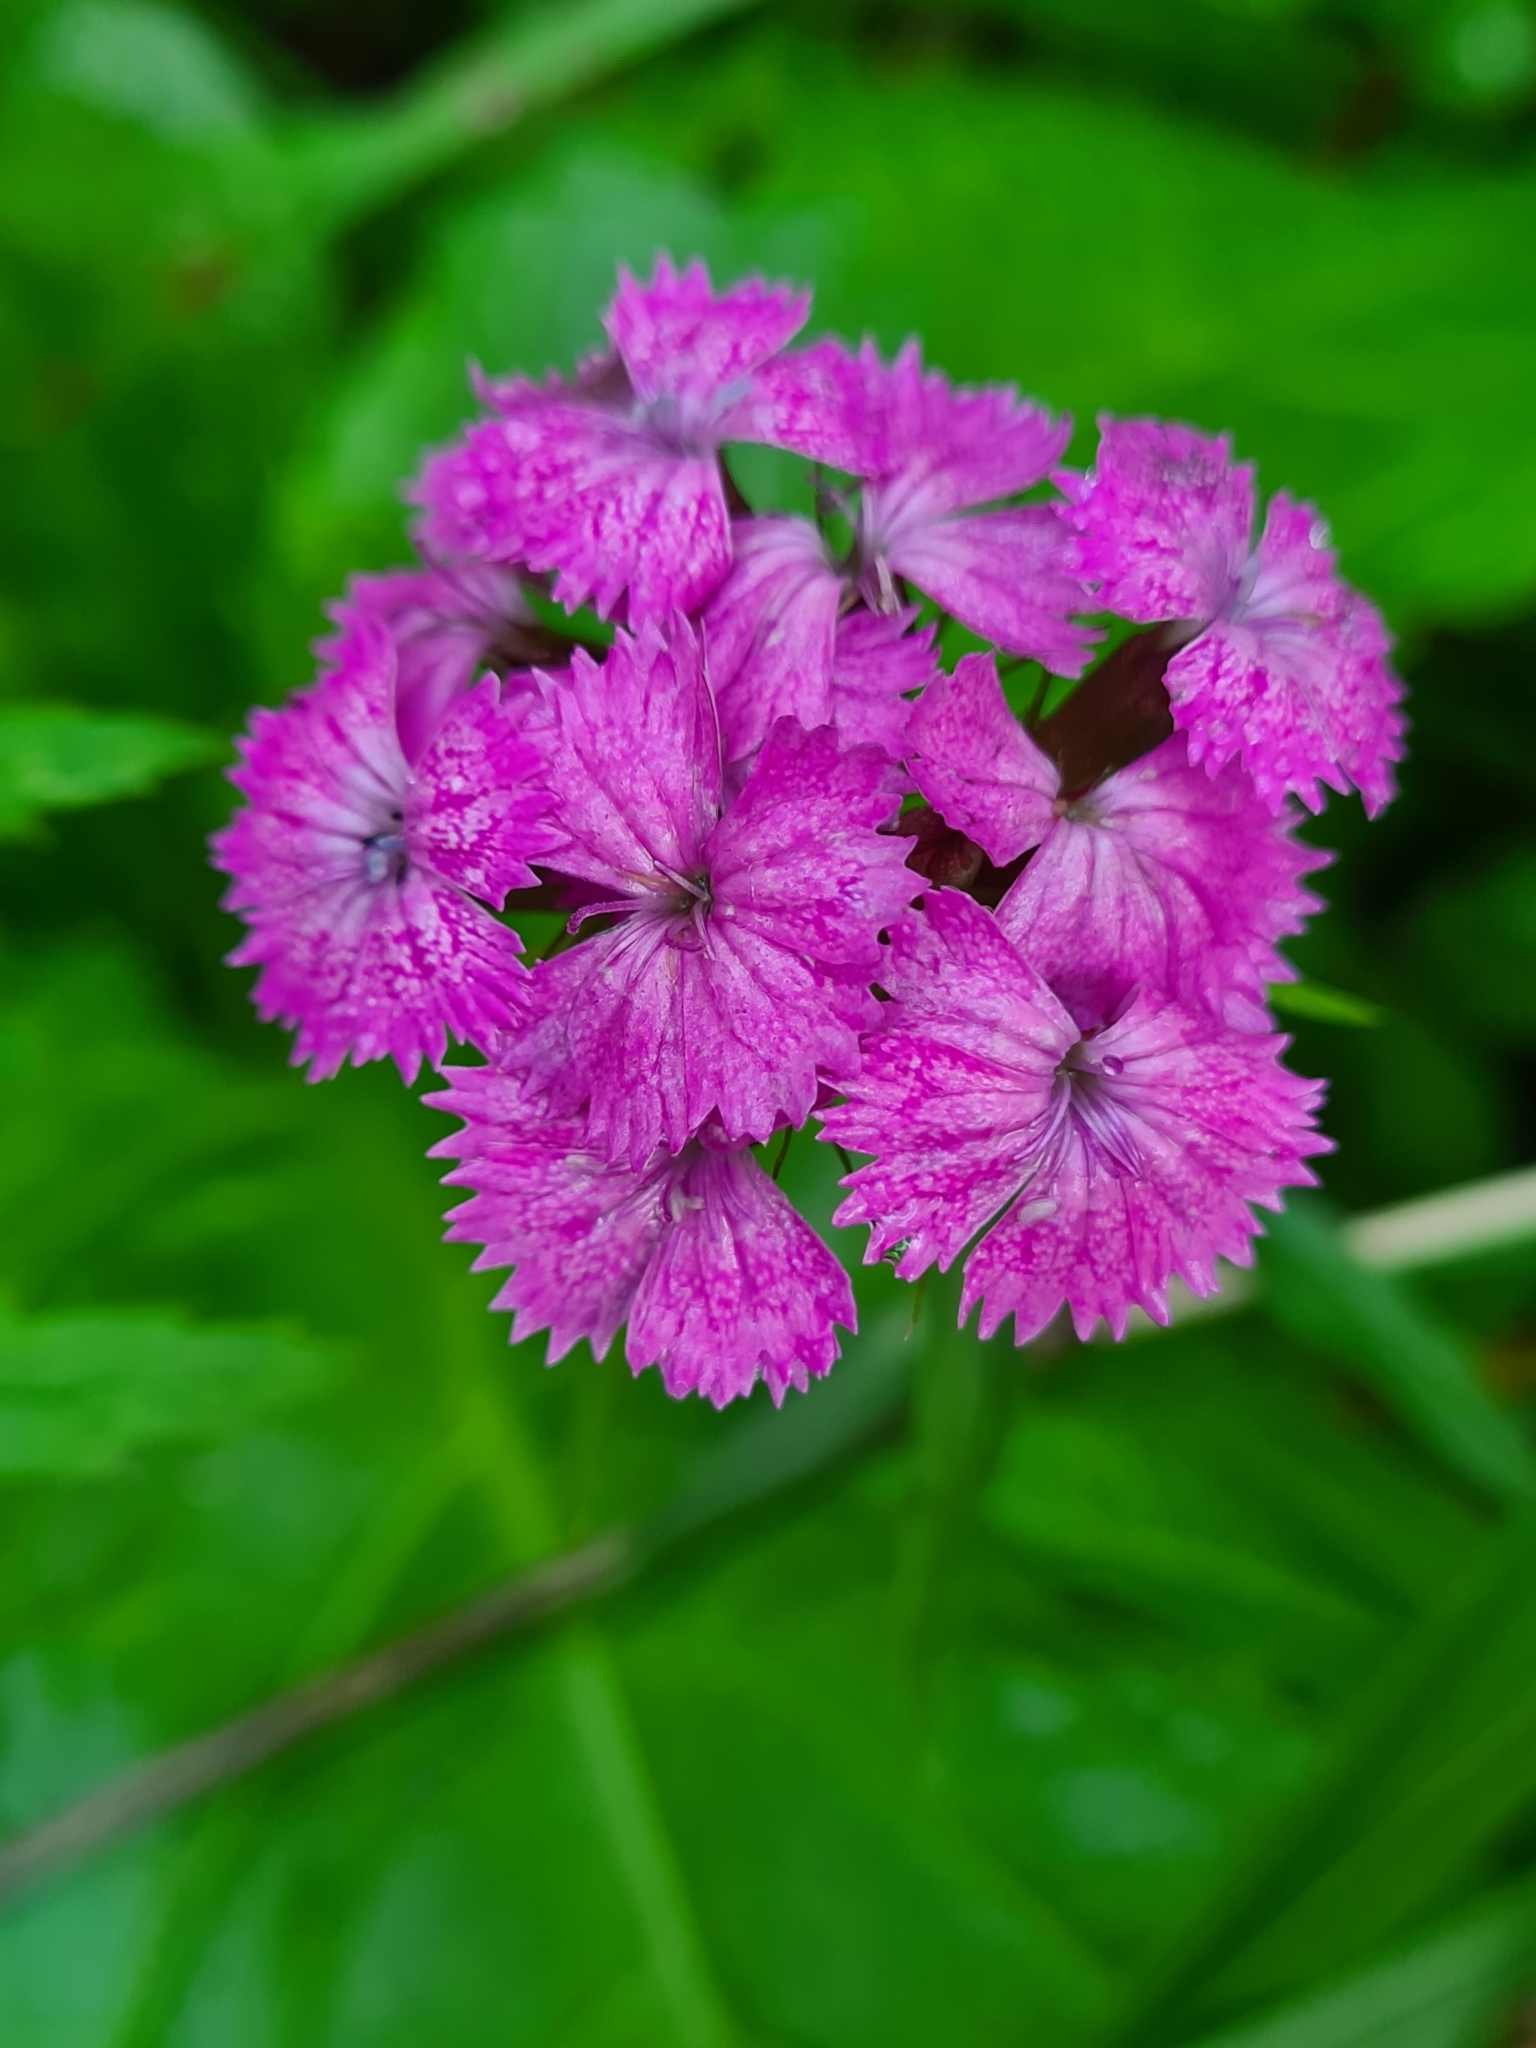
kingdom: Plantae
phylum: Tracheophyta
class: Magnoliopsida
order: Caryophyllales
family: Caryophyllaceae
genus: Dianthus
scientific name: Dianthus barbatus
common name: Sweet-william
